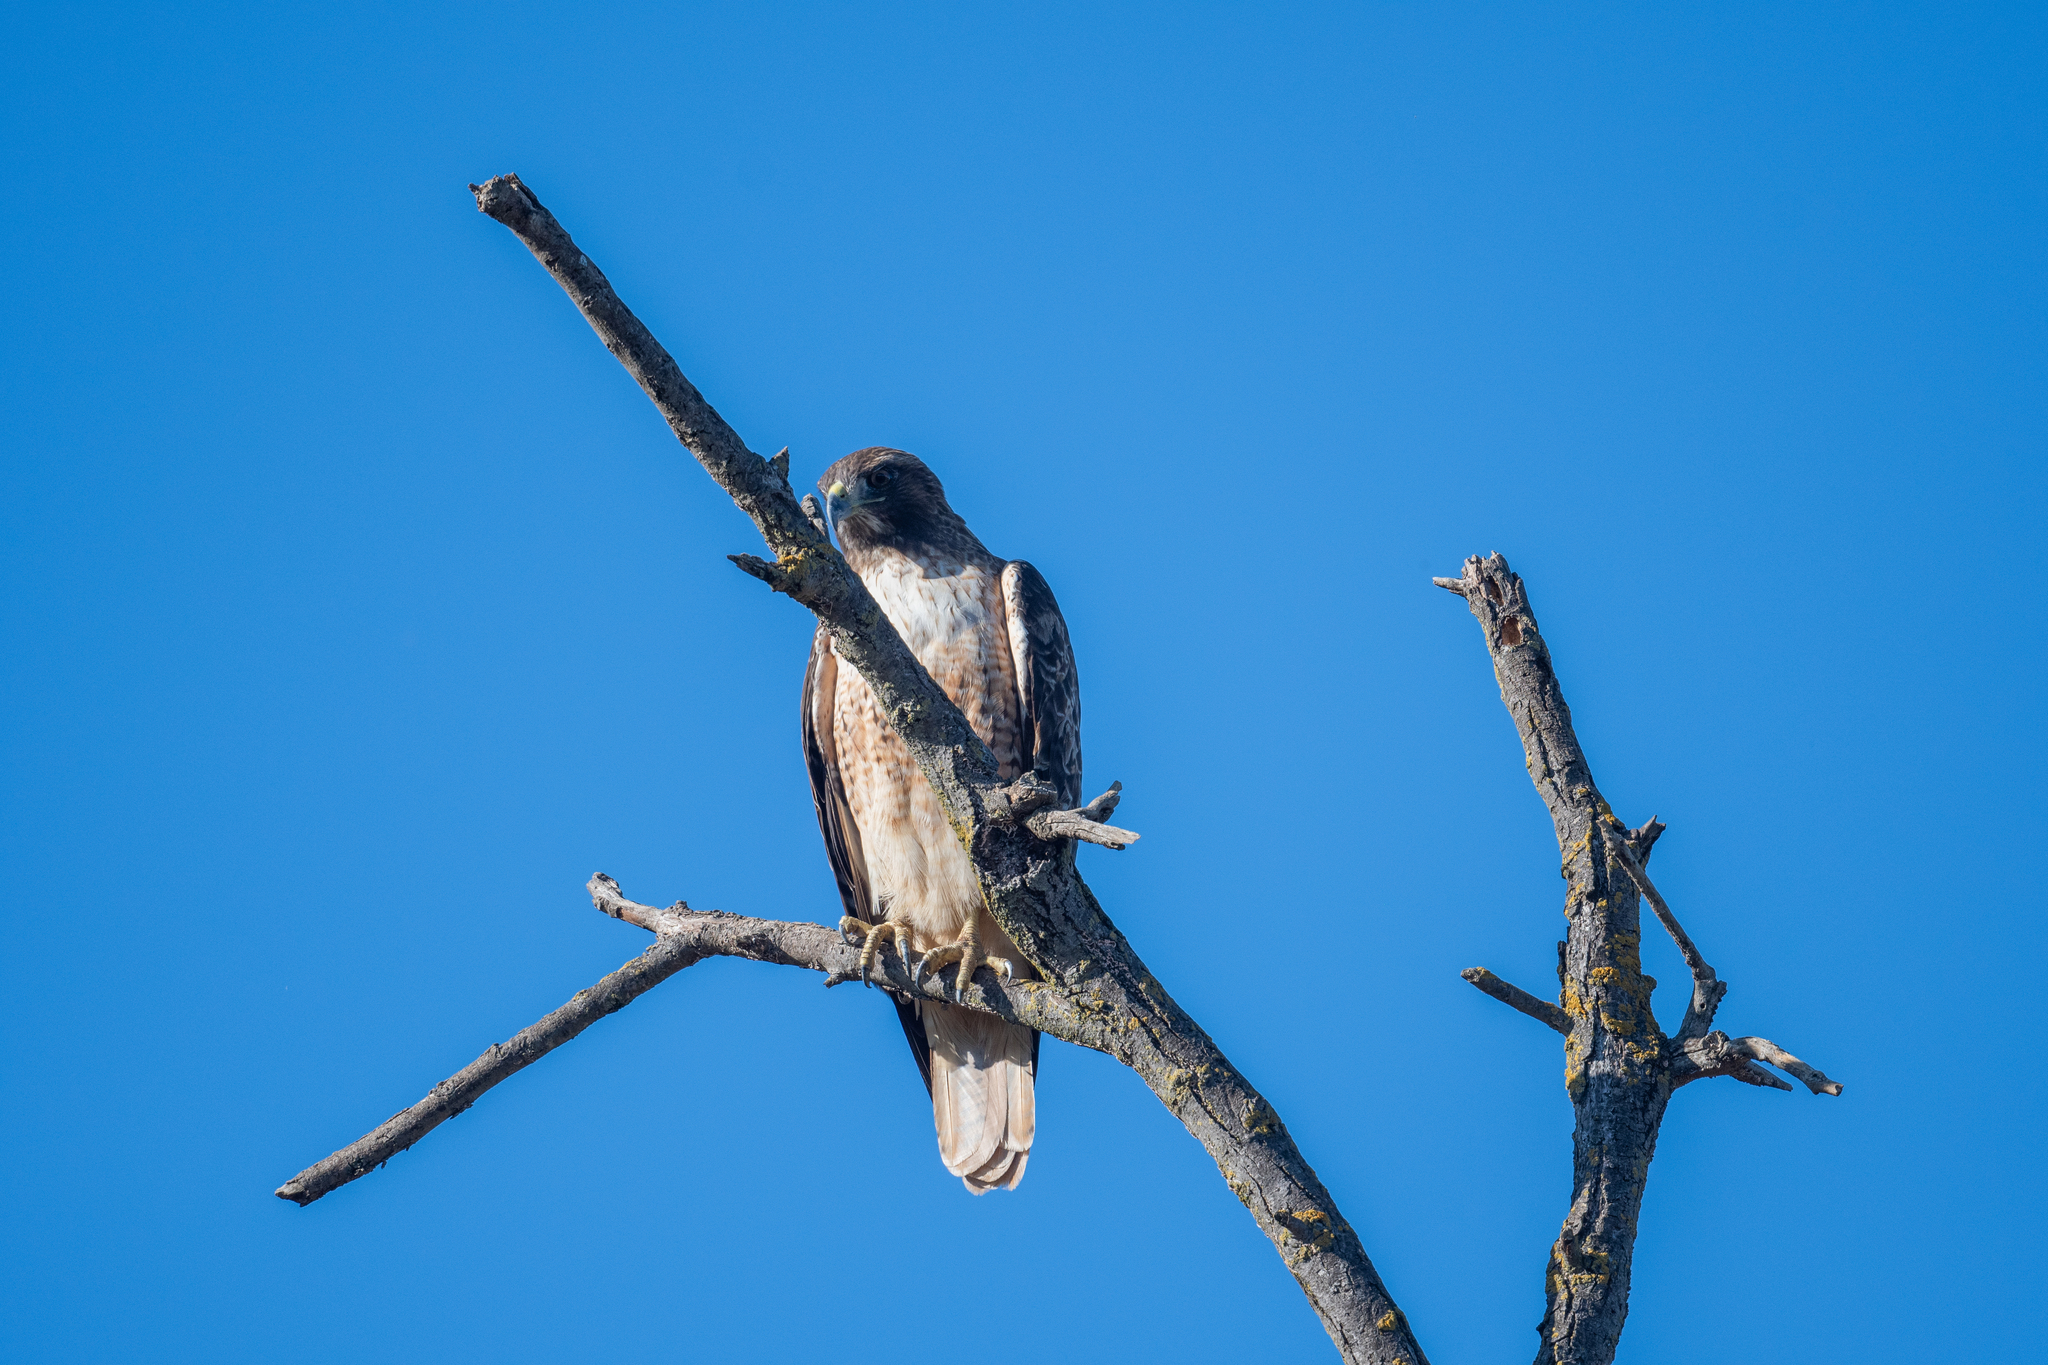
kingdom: Animalia
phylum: Chordata
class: Aves
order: Accipitriformes
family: Accipitridae
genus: Buteo
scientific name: Buteo jamaicensis
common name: Red-tailed hawk
